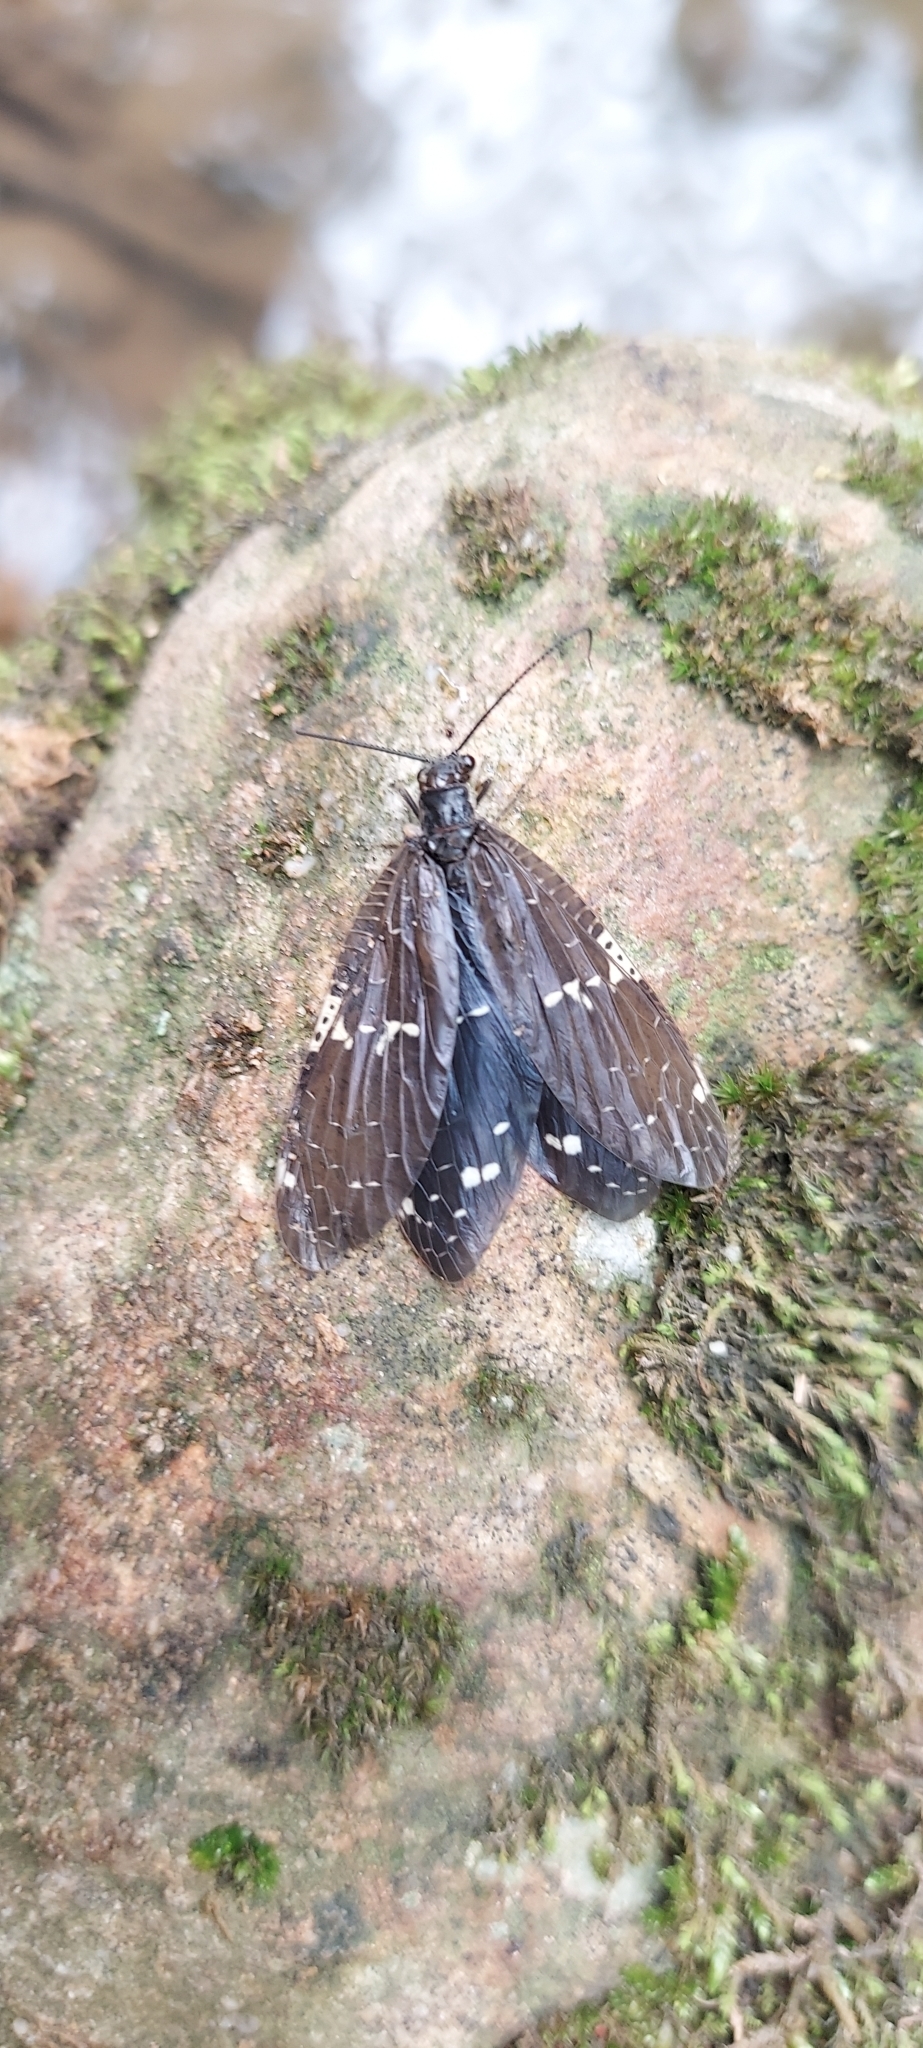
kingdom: Animalia
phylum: Arthropoda
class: Insecta
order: Megaloptera
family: Corydalidae
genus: Nigronia
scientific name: Nigronia serricornis
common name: Serrate dark fishfly
